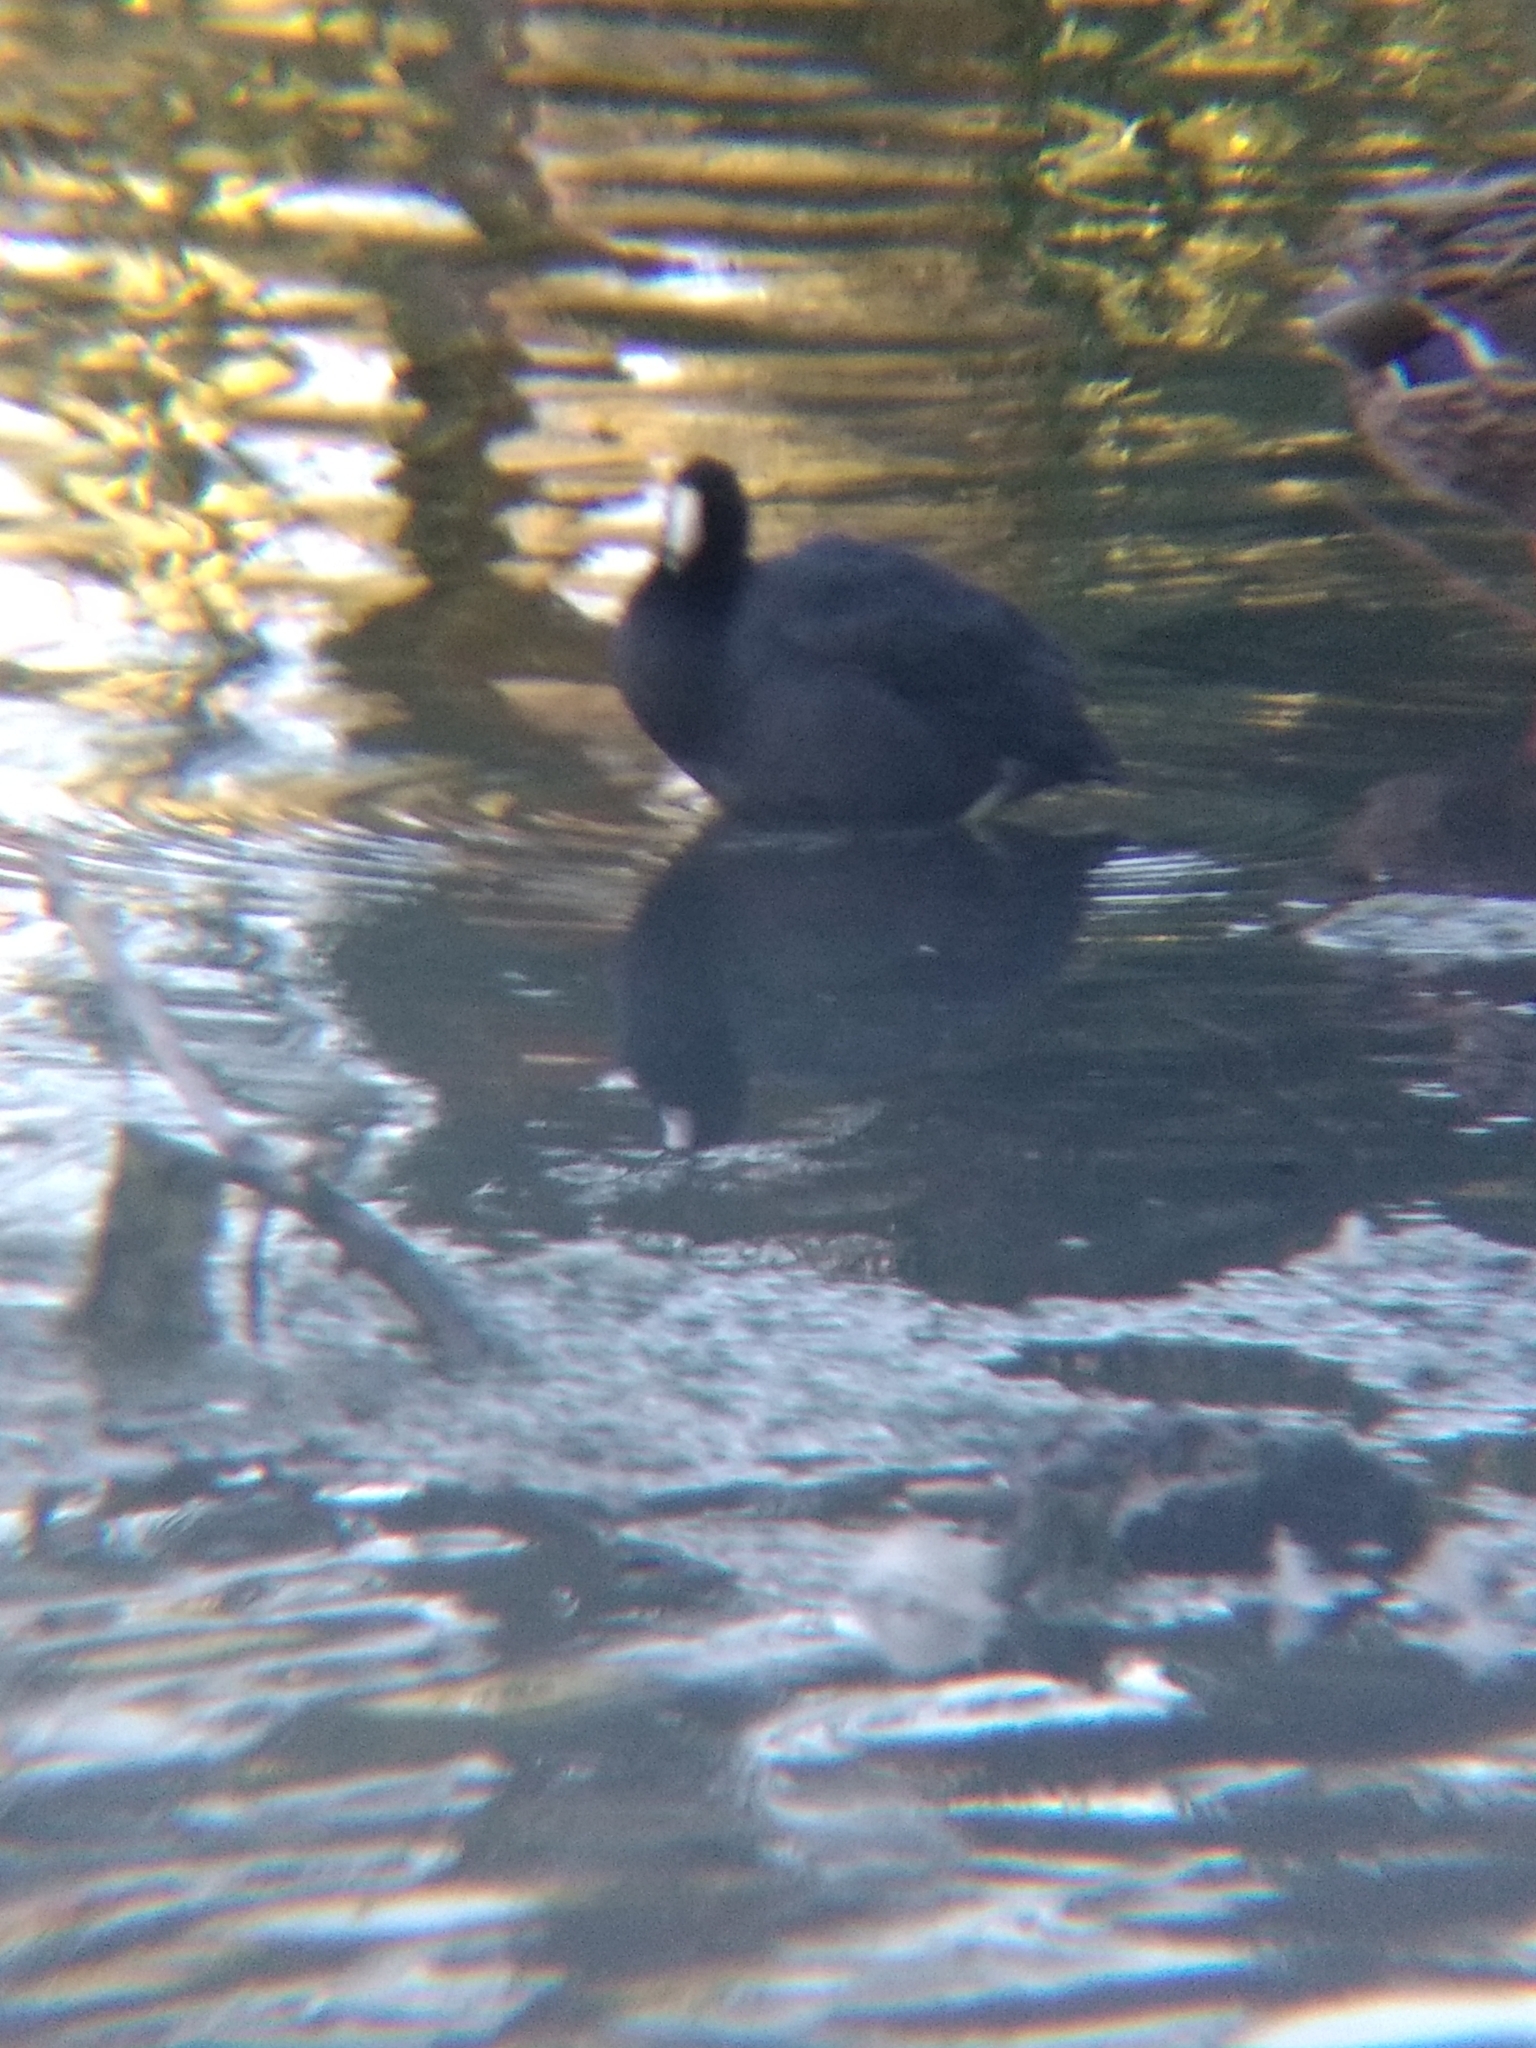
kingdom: Animalia
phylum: Chordata
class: Aves
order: Gruiformes
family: Rallidae
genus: Fulica
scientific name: Fulica americana
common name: American coot
